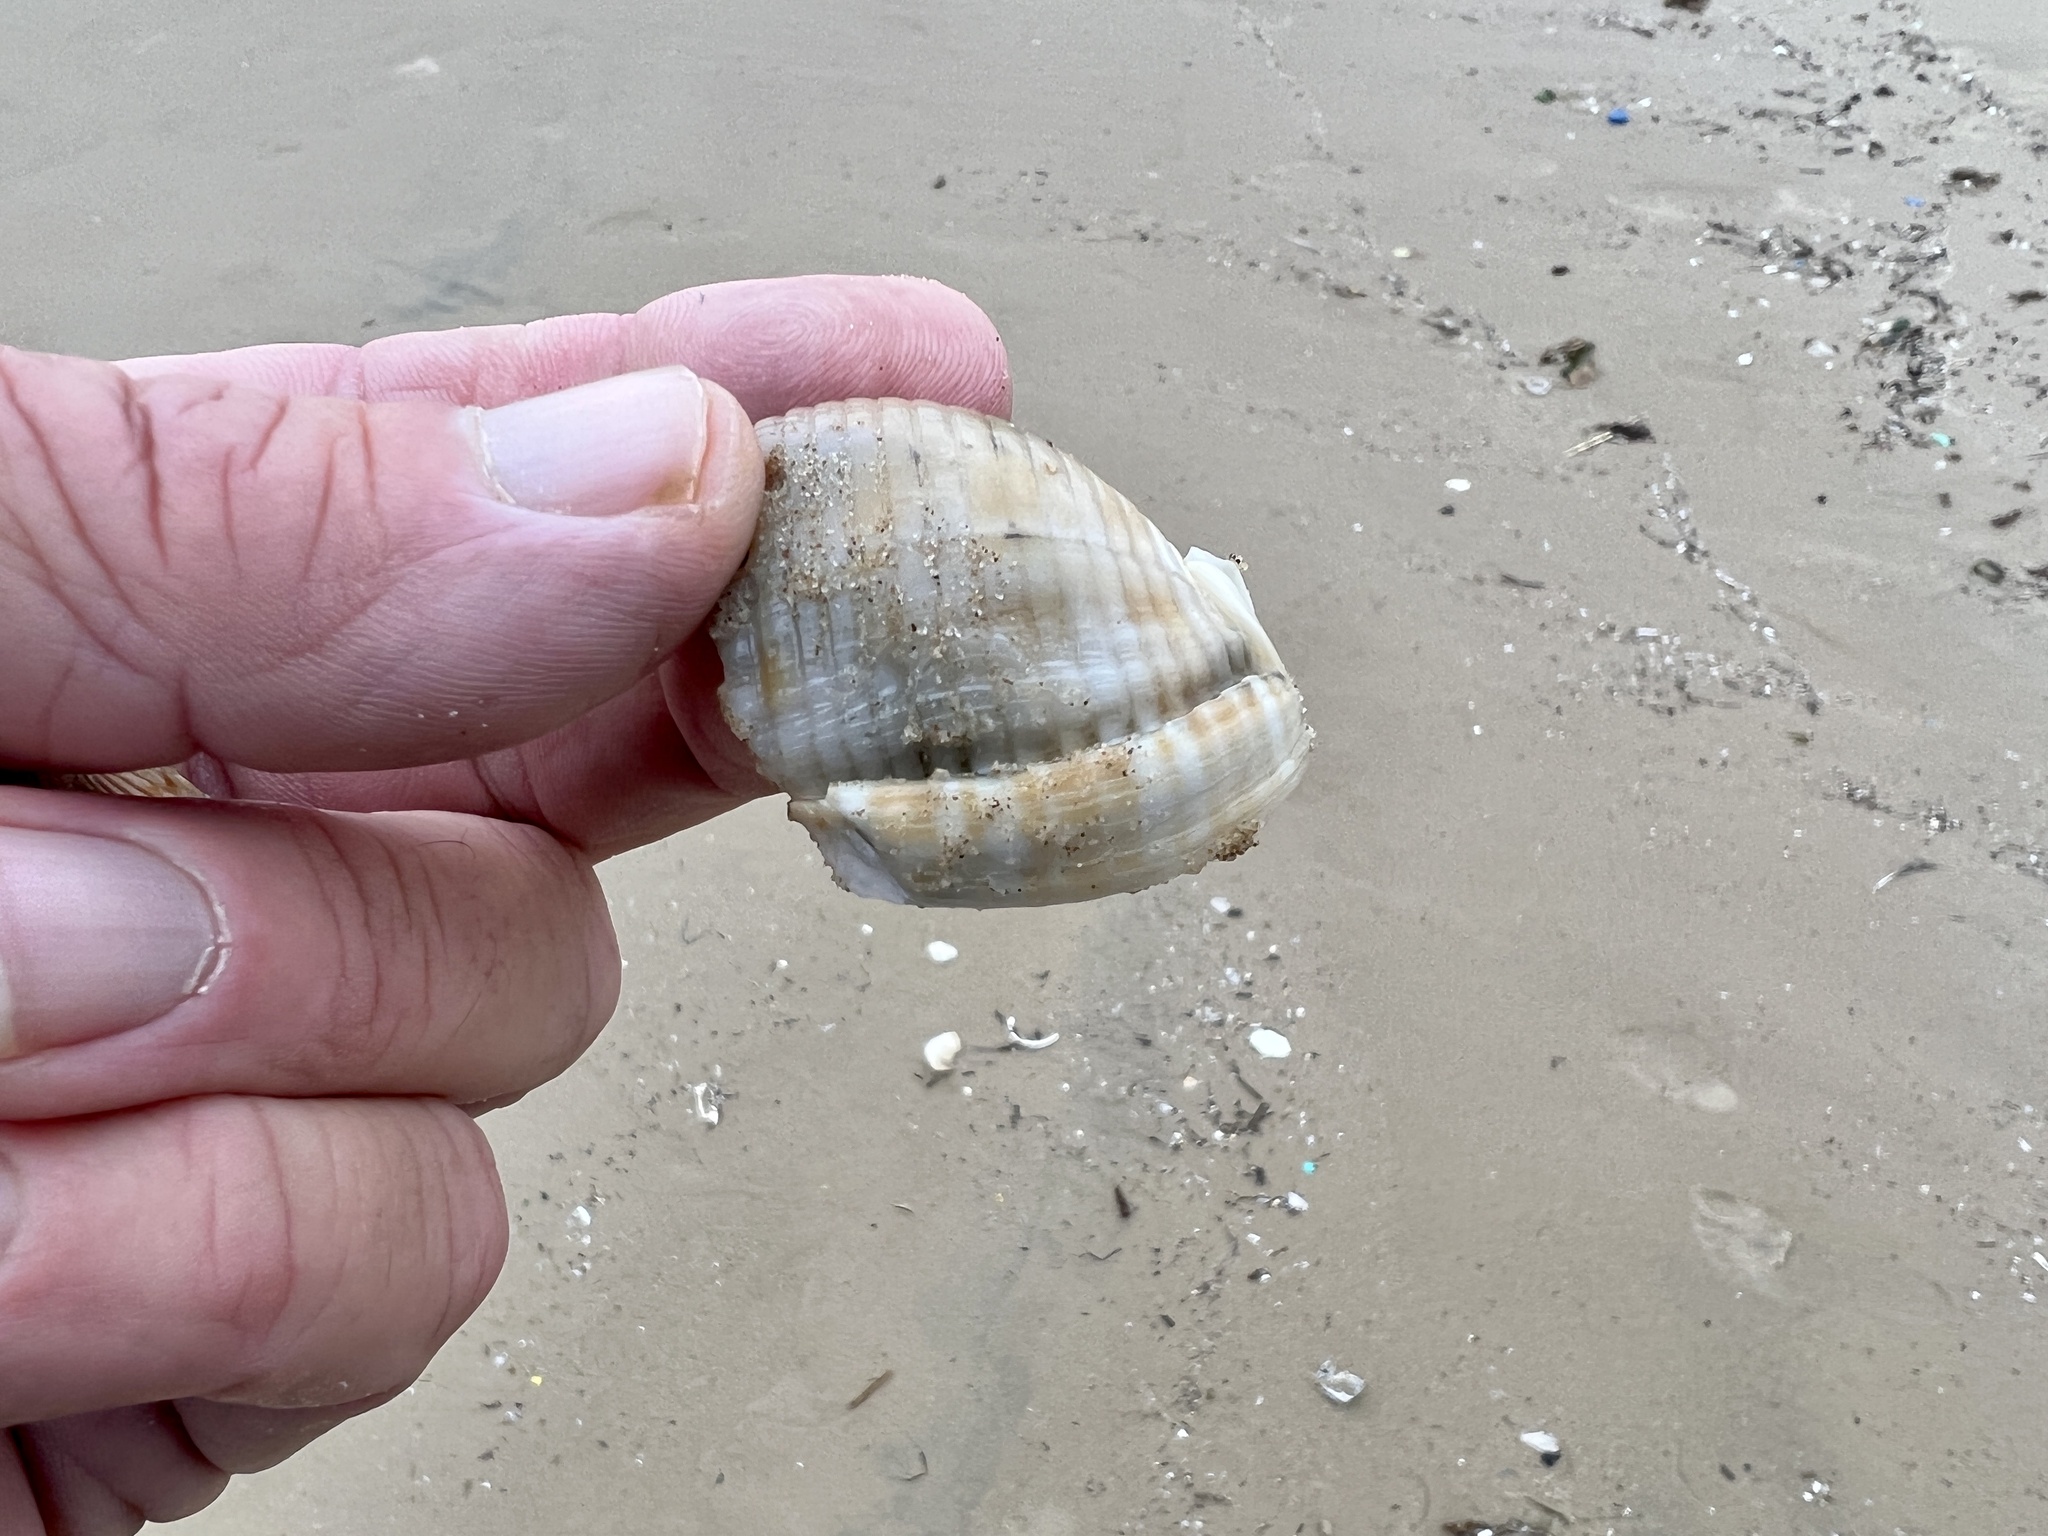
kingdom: Animalia
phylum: Mollusca
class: Gastropoda
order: Littorinimorpha
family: Cassidae
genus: Semicassis
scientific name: Semicassis granulata
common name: Scotch bonnet
